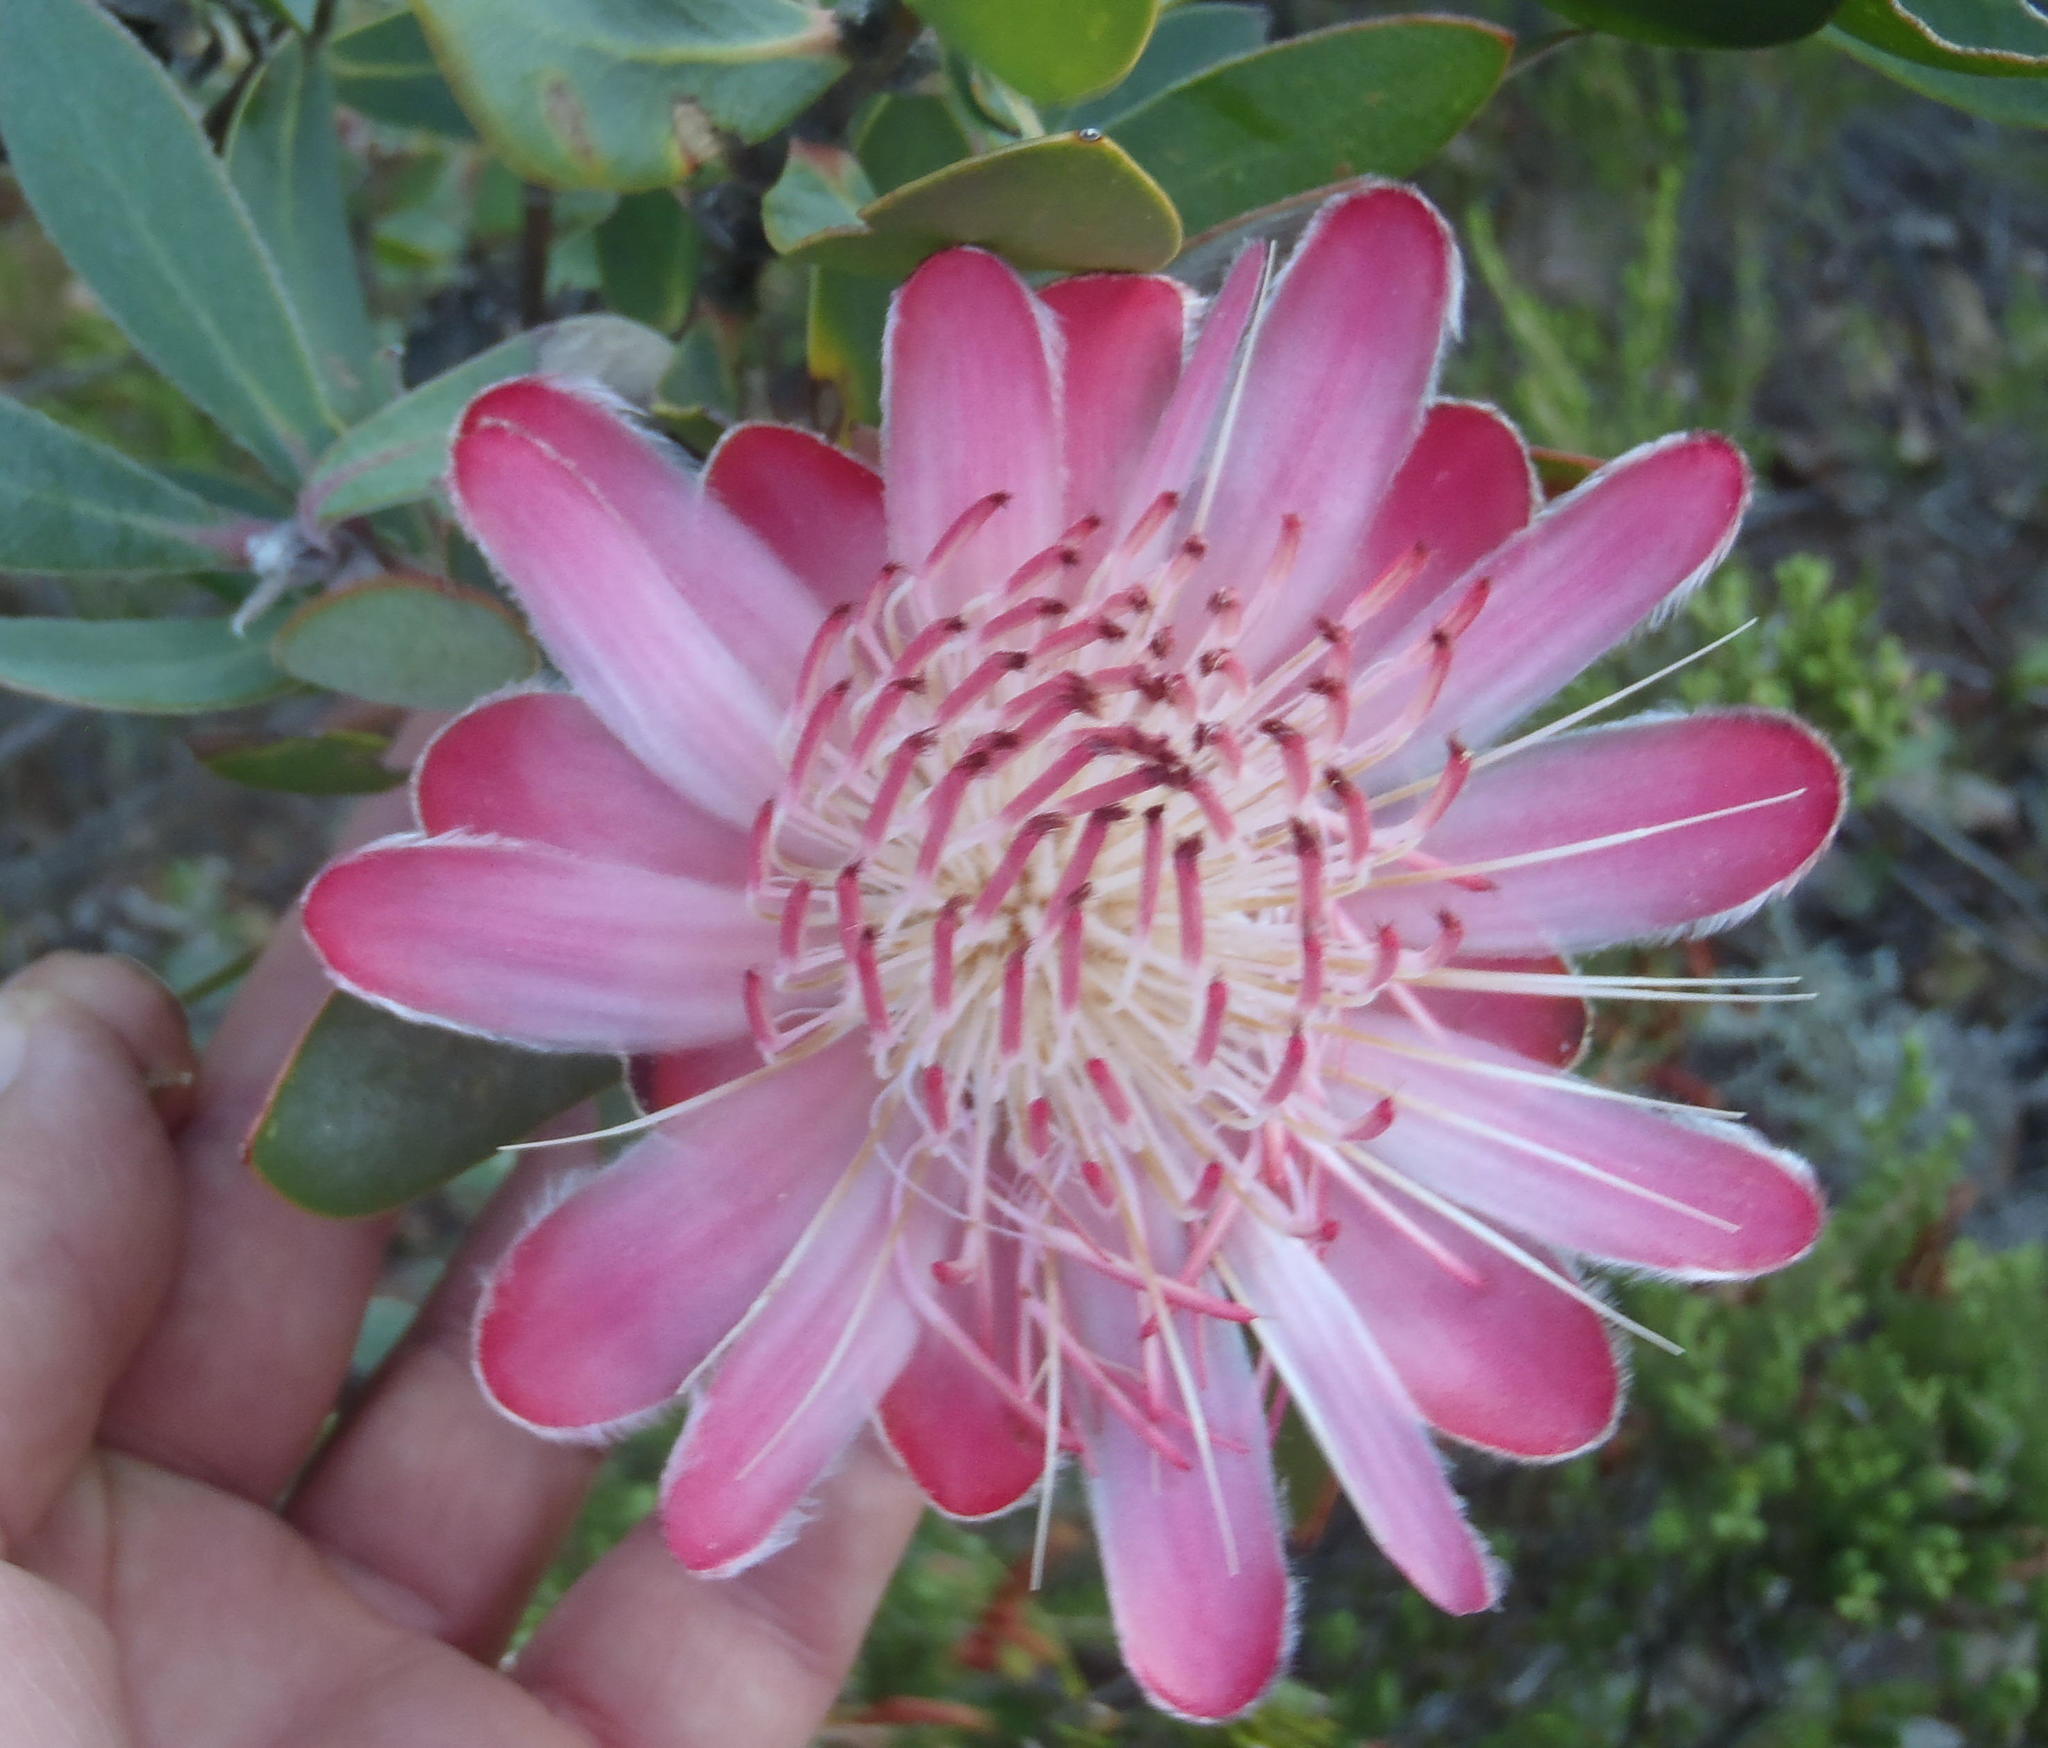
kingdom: Plantae
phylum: Tracheophyta
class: Magnoliopsida
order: Proteales
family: Proteaceae
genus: Protea
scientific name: Protea punctata
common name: Water sugarbush
